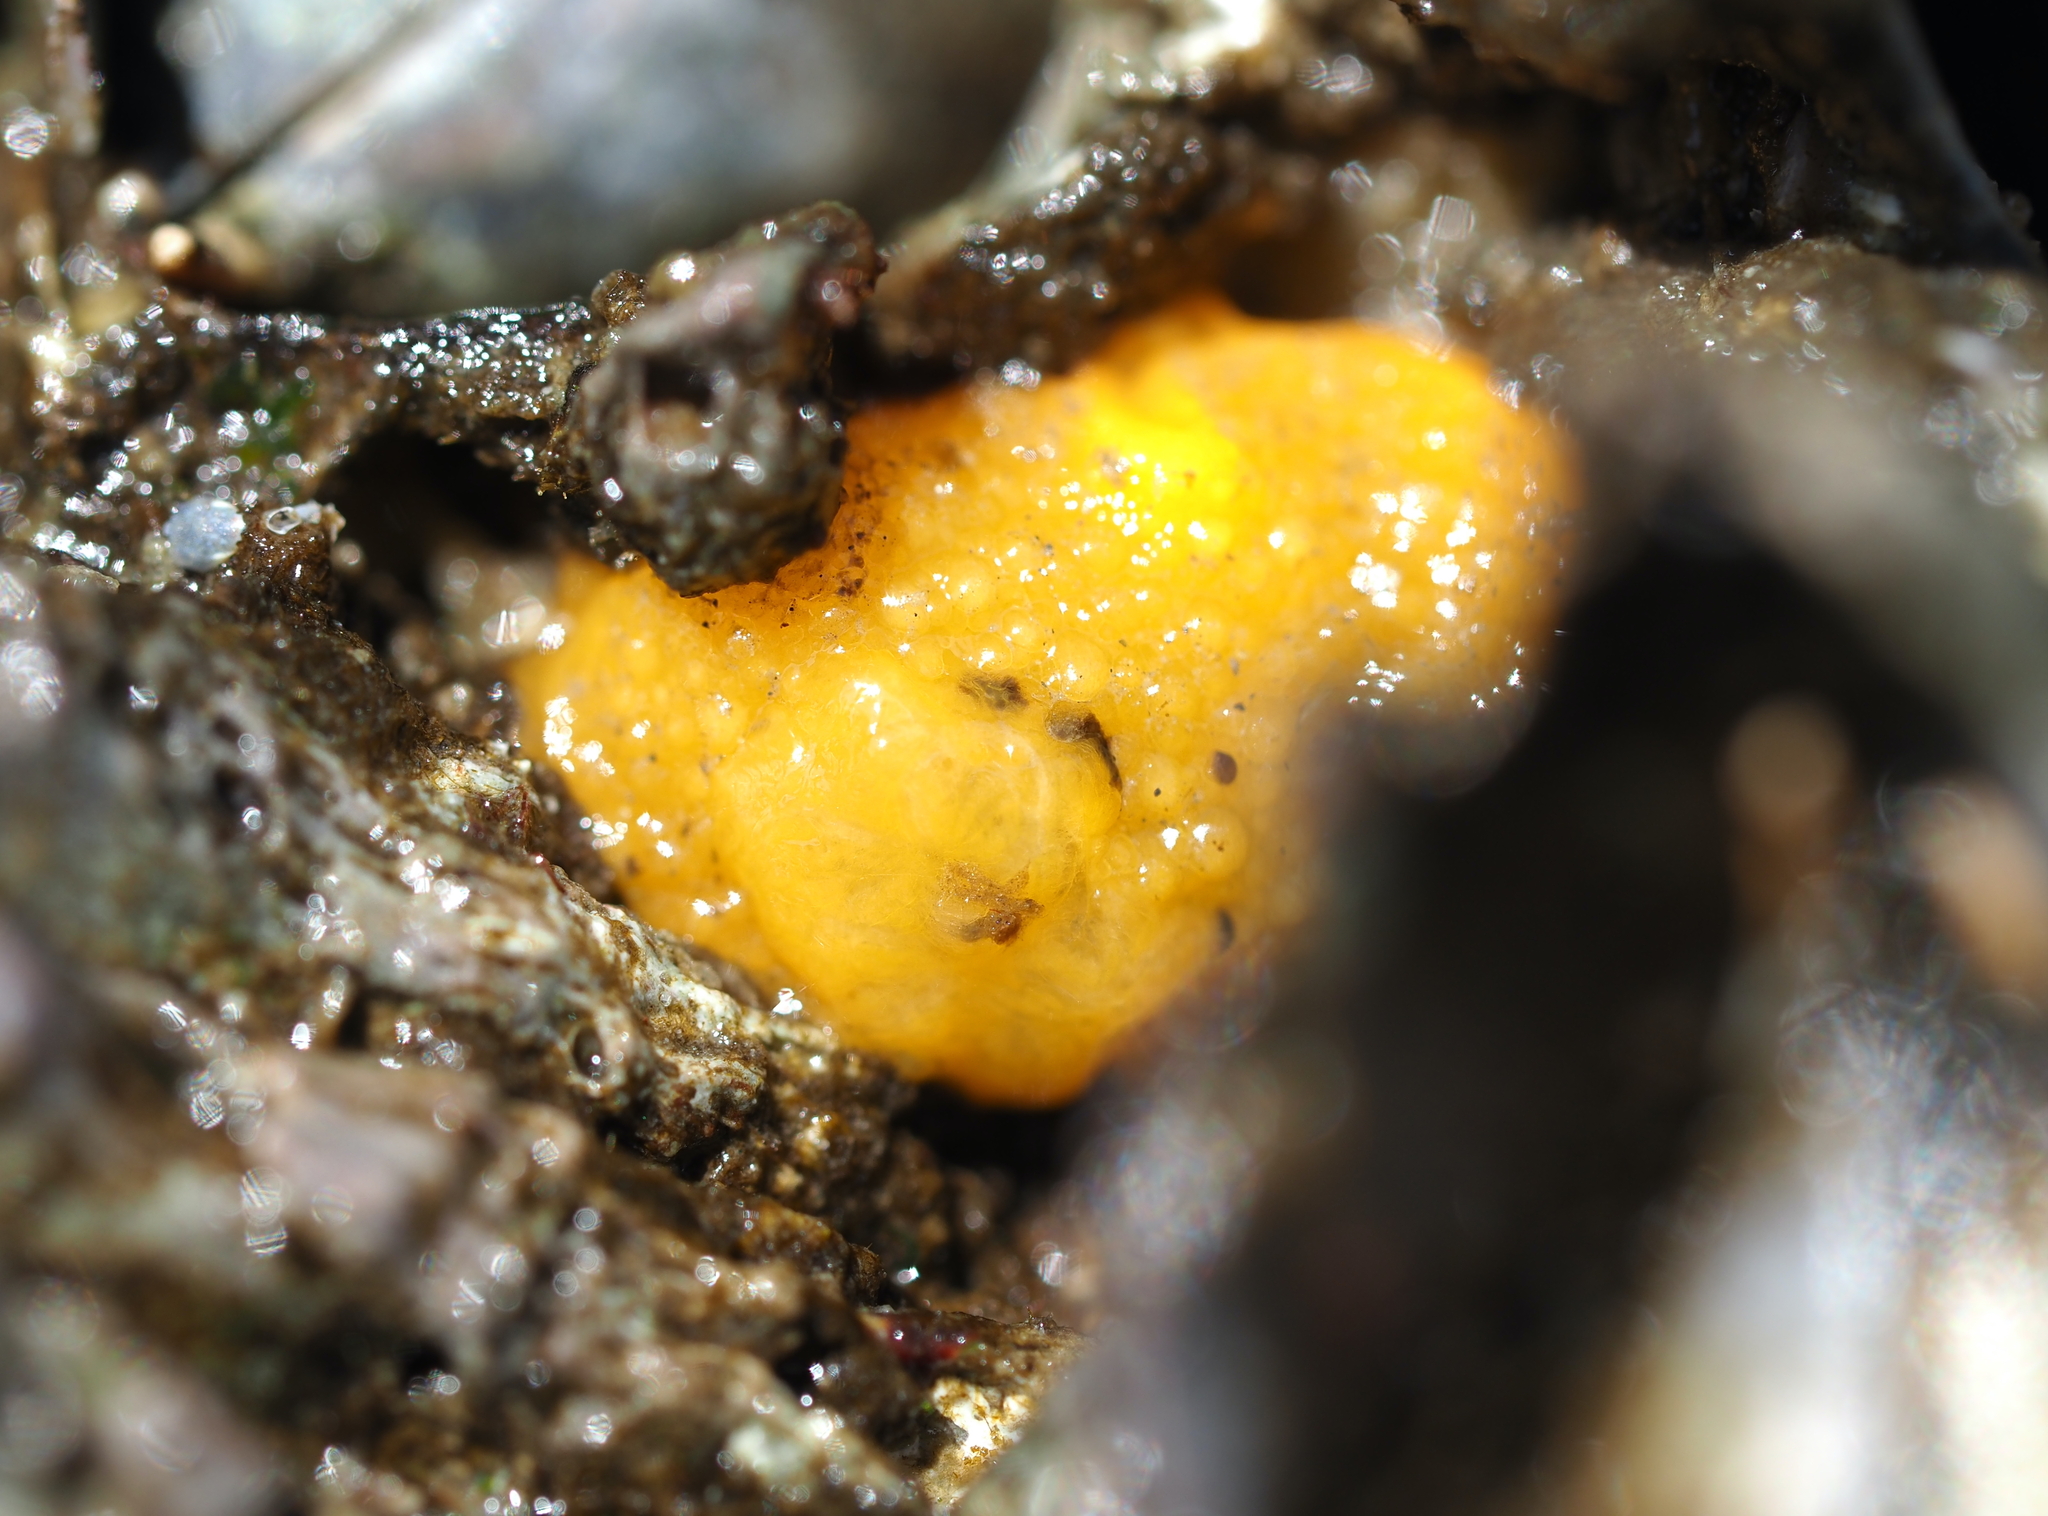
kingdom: Animalia
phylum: Mollusca
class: Gastropoda
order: Nudibranchia
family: Dorididae
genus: Doris
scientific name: Doris montereyensis
